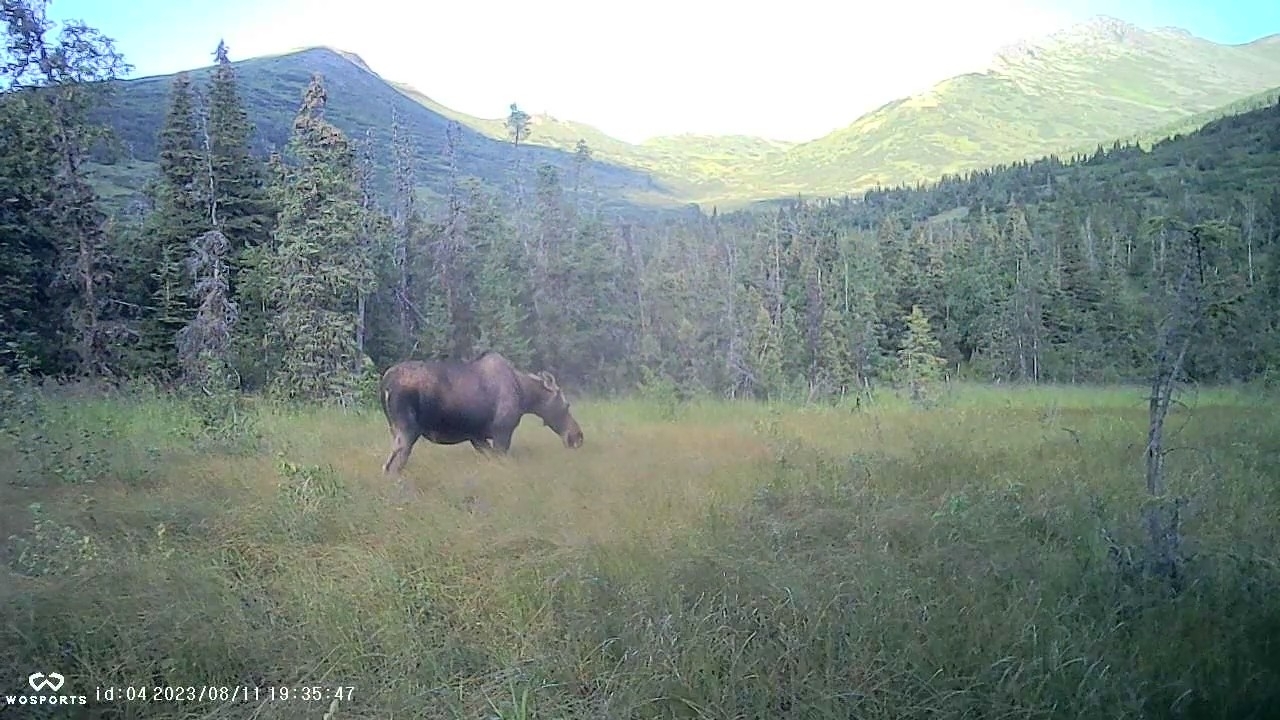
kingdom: Animalia
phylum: Chordata
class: Mammalia
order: Artiodactyla
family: Cervidae
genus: Alces
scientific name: Alces alces
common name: Moose
